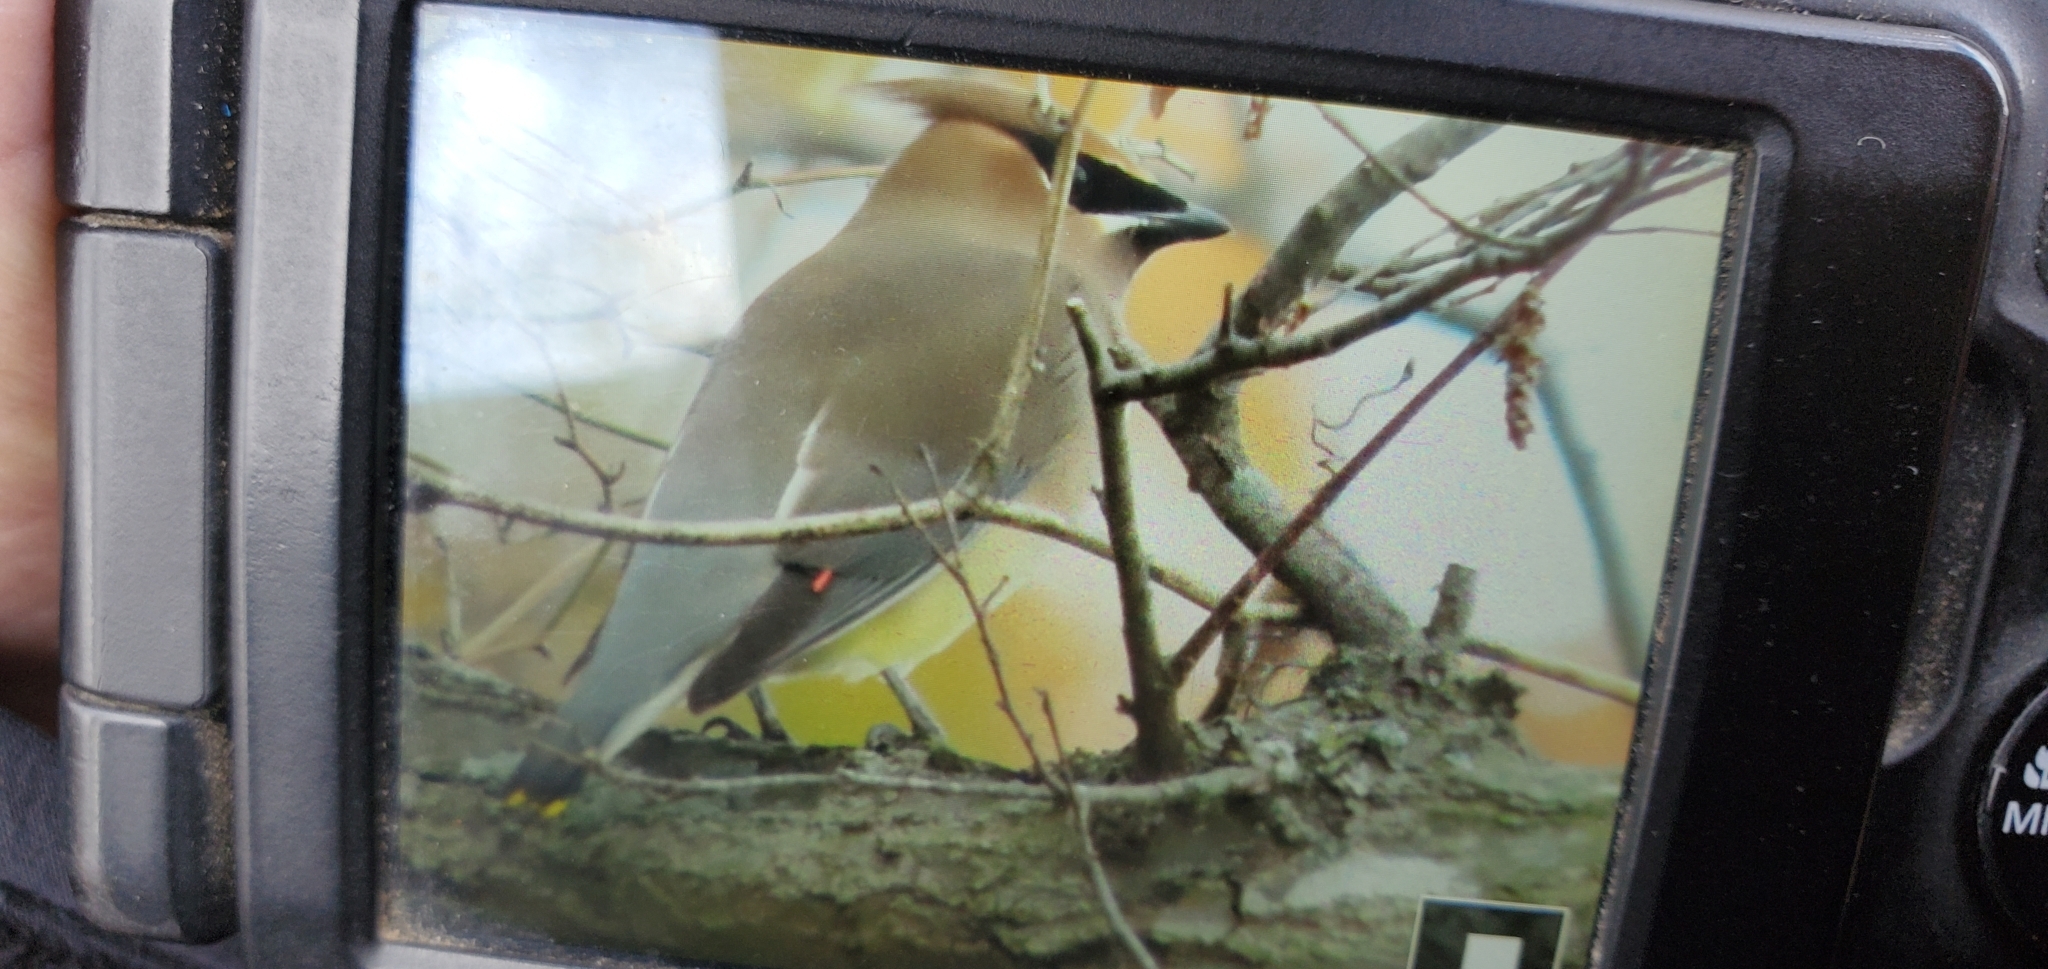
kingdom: Animalia
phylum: Chordata
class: Aves
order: Passeriformes
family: Bombycillidae
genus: Bombycilla
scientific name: Bombycilla cedrorum
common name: Cedar waxwing
